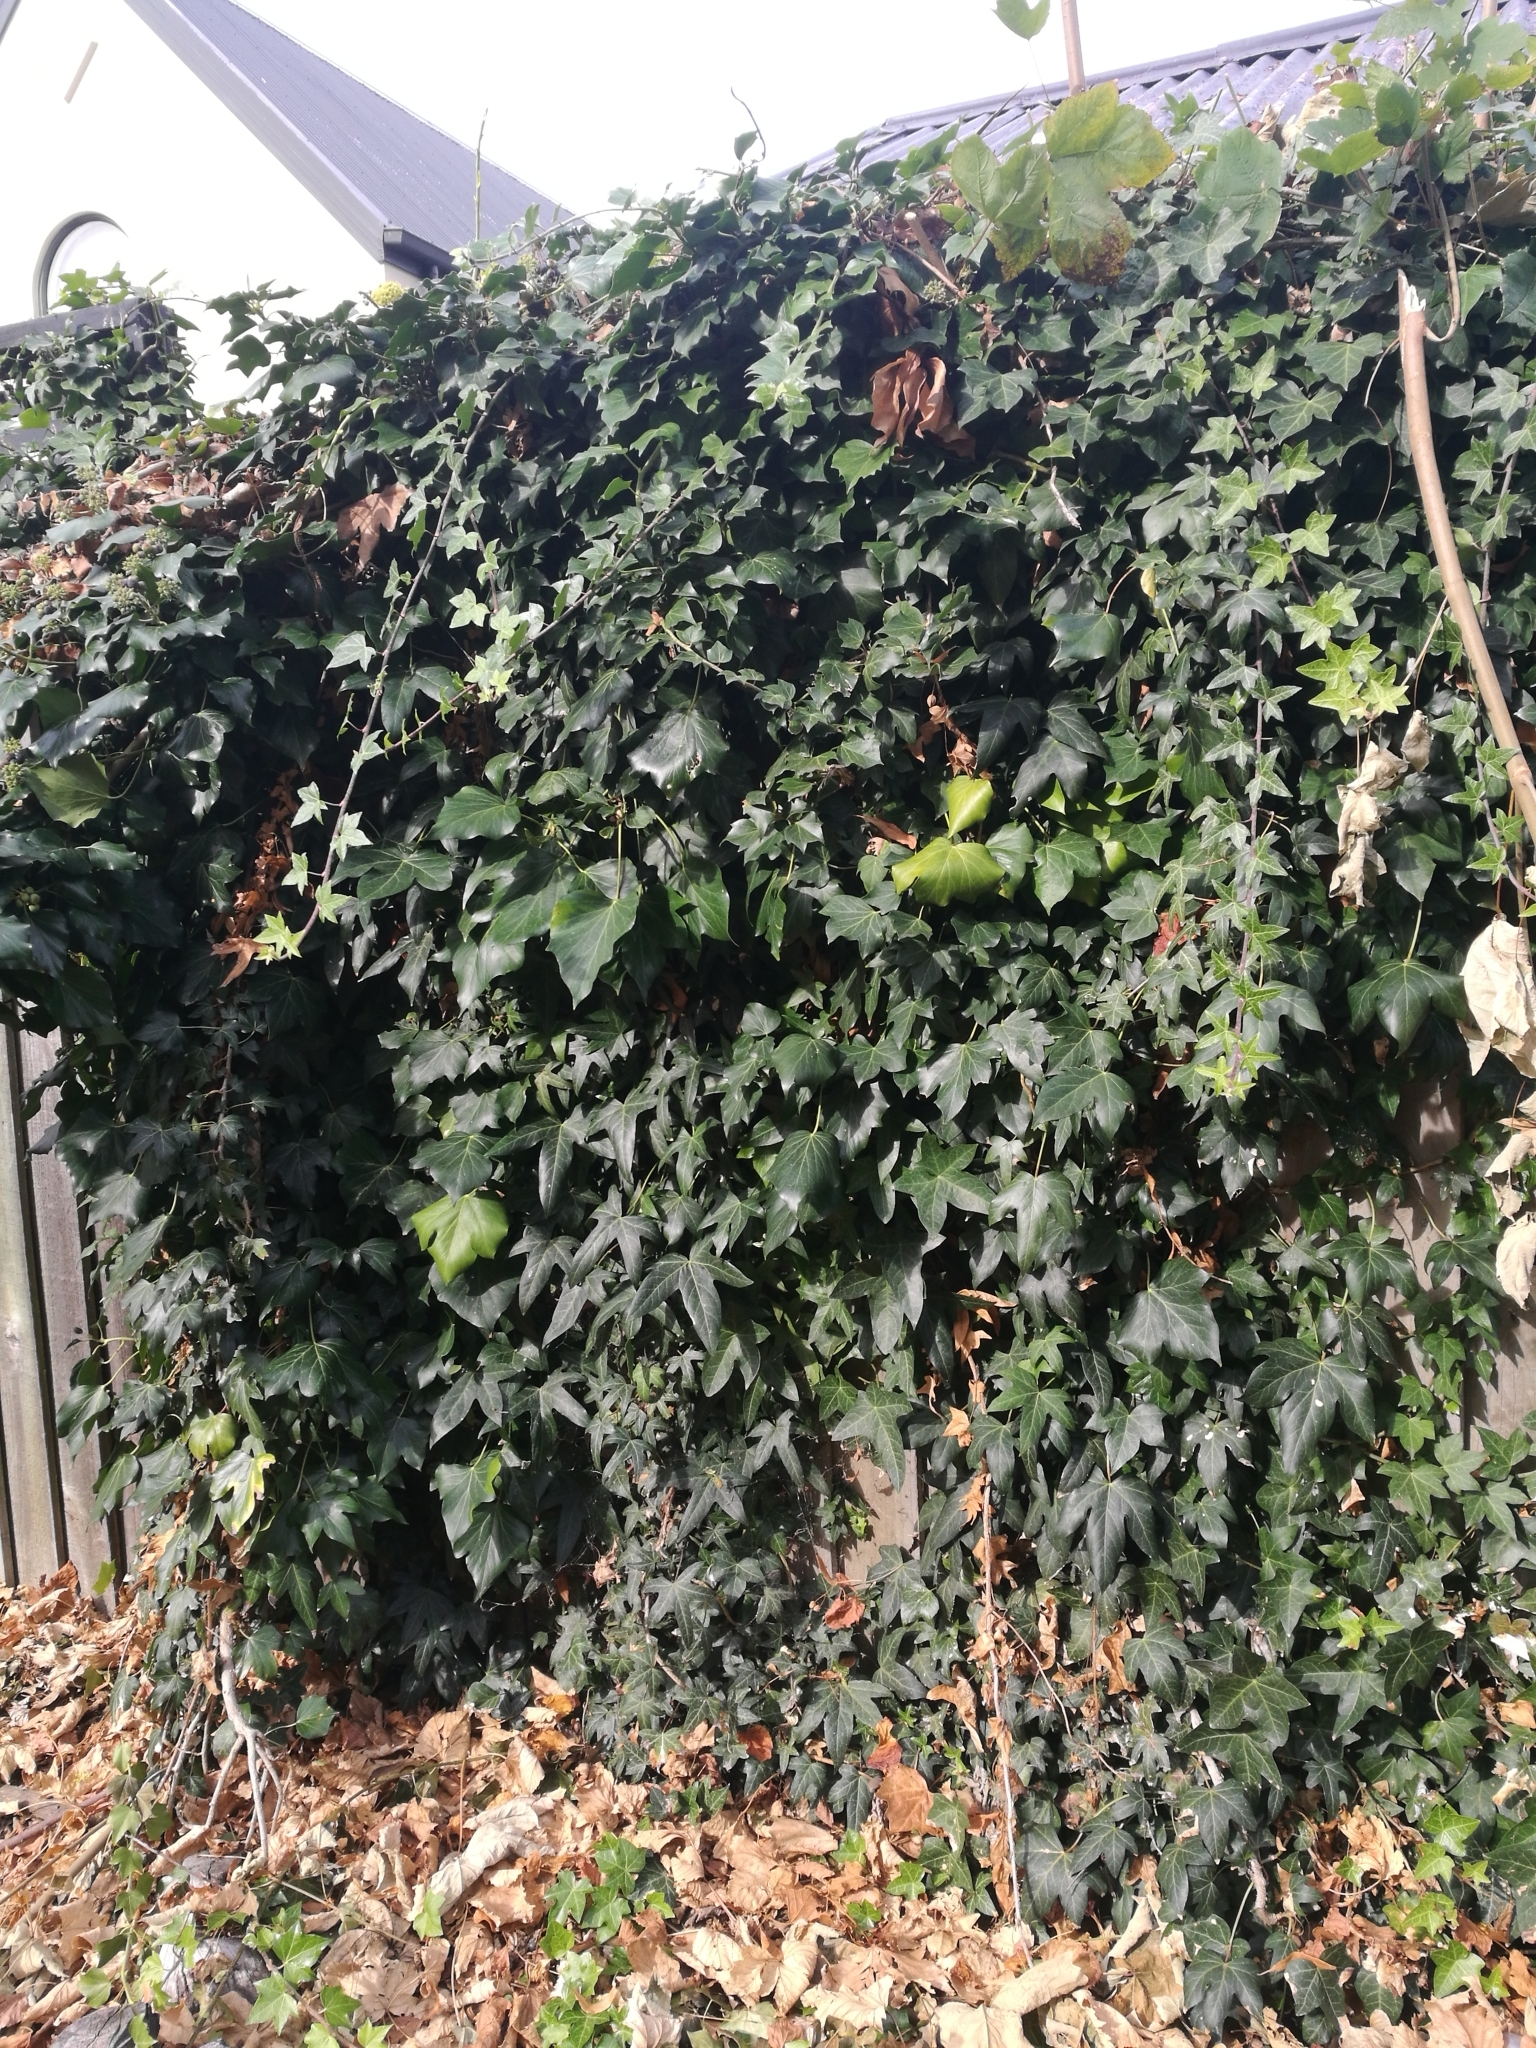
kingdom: Plantae
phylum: Tracheophyta
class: Magnoliopsida
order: Apiales
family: Araliaceae
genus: Hedera
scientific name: Hedera helix
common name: Ivy
